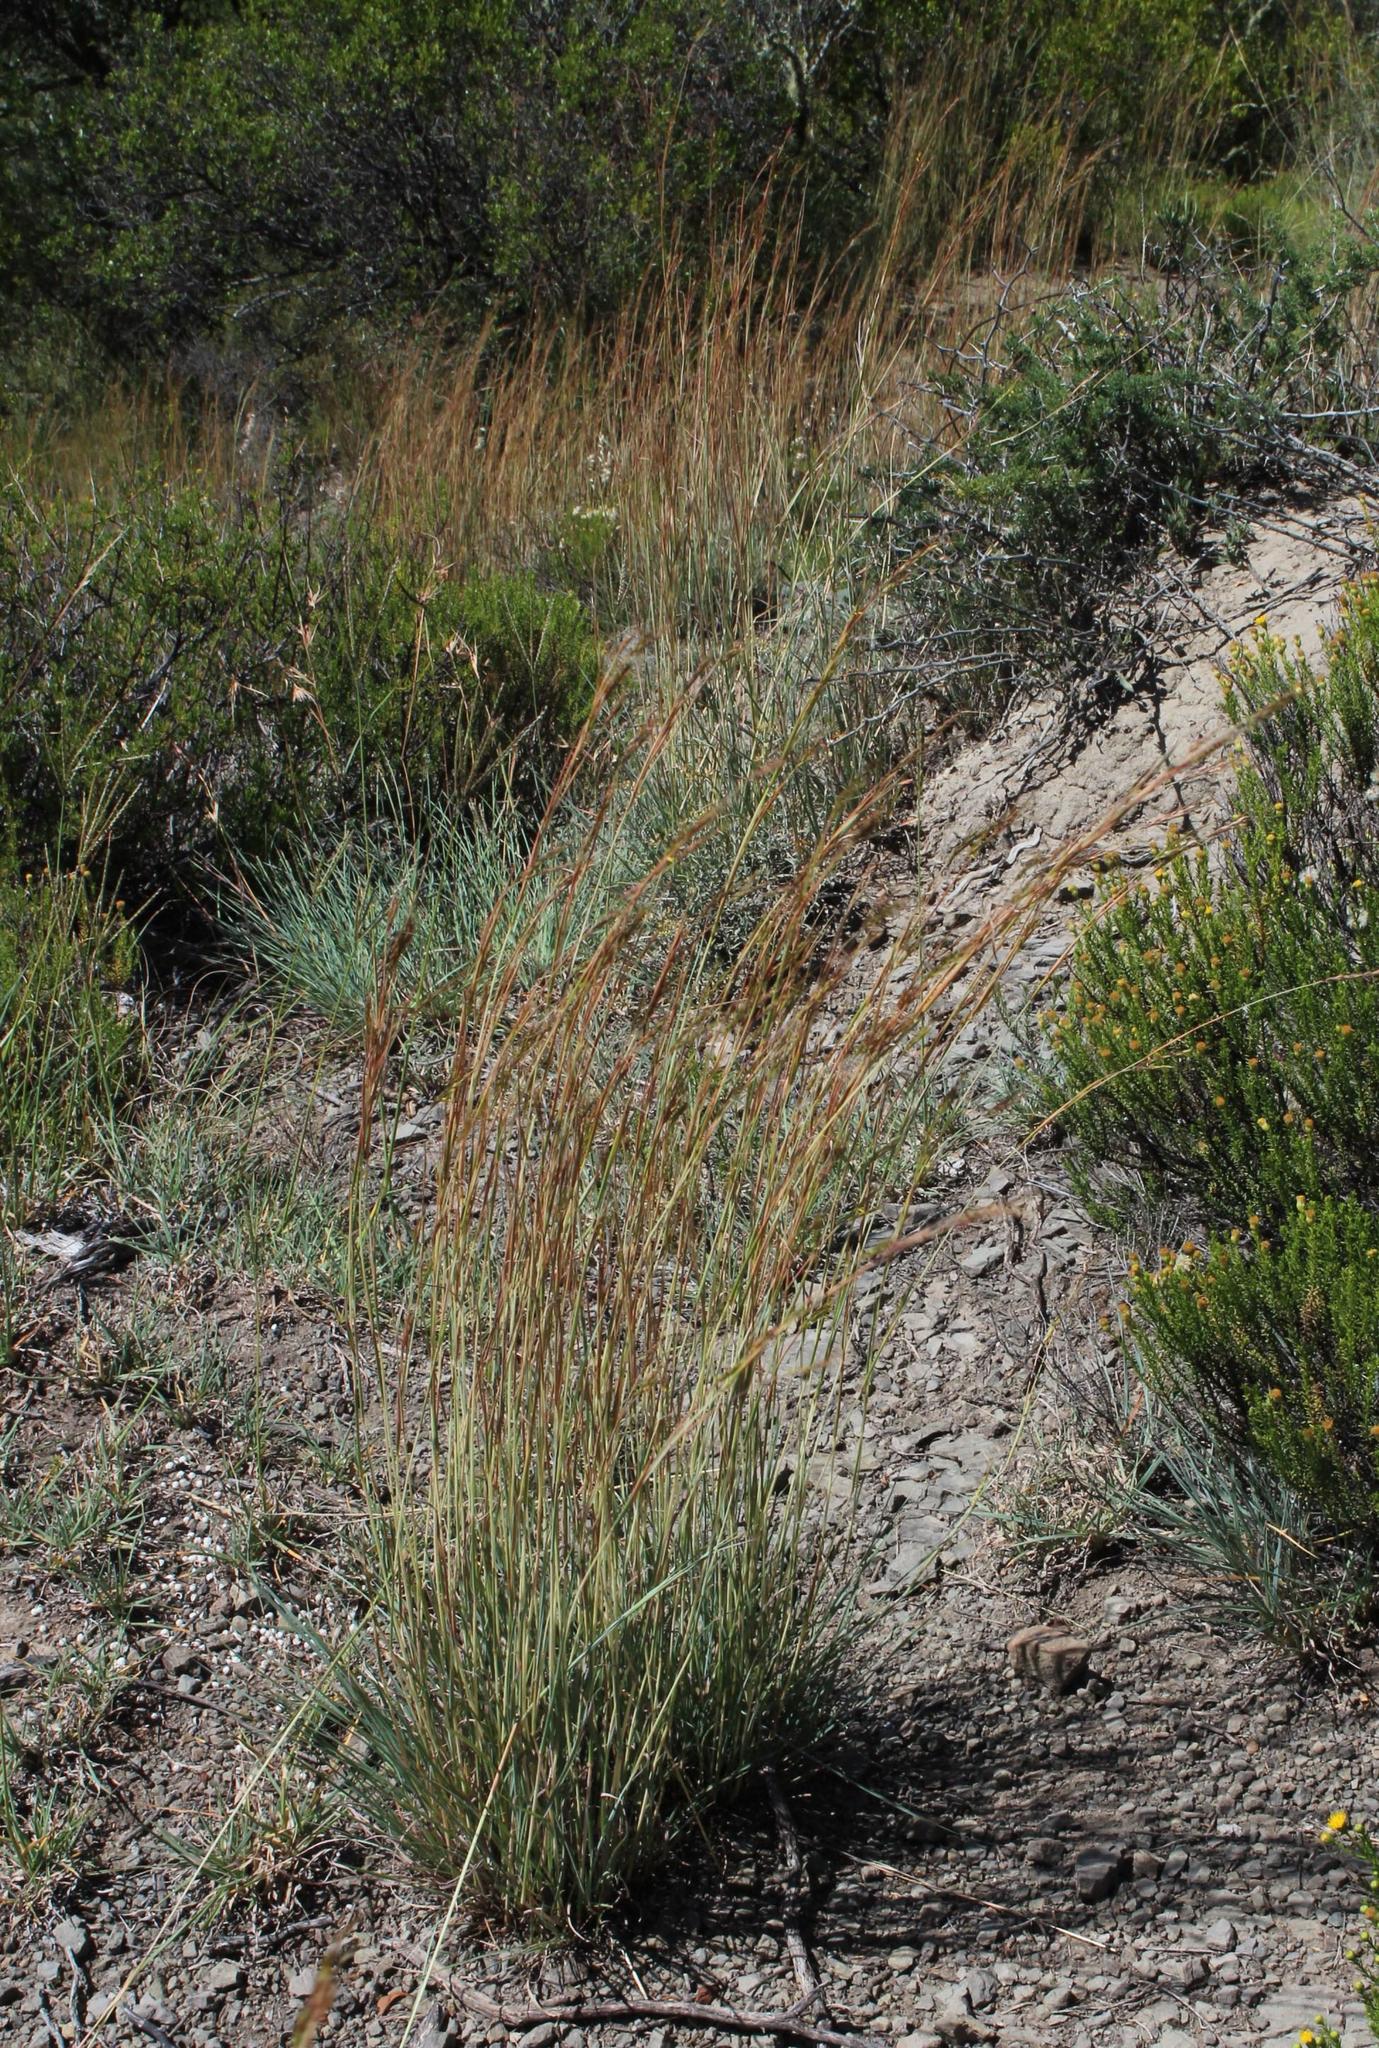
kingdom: Plantae
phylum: Tracheophyta
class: Liliopsida
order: Poales
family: Poaceae
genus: Hyparrhenia
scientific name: Hyparrhenia hirta
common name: Thatching grass
